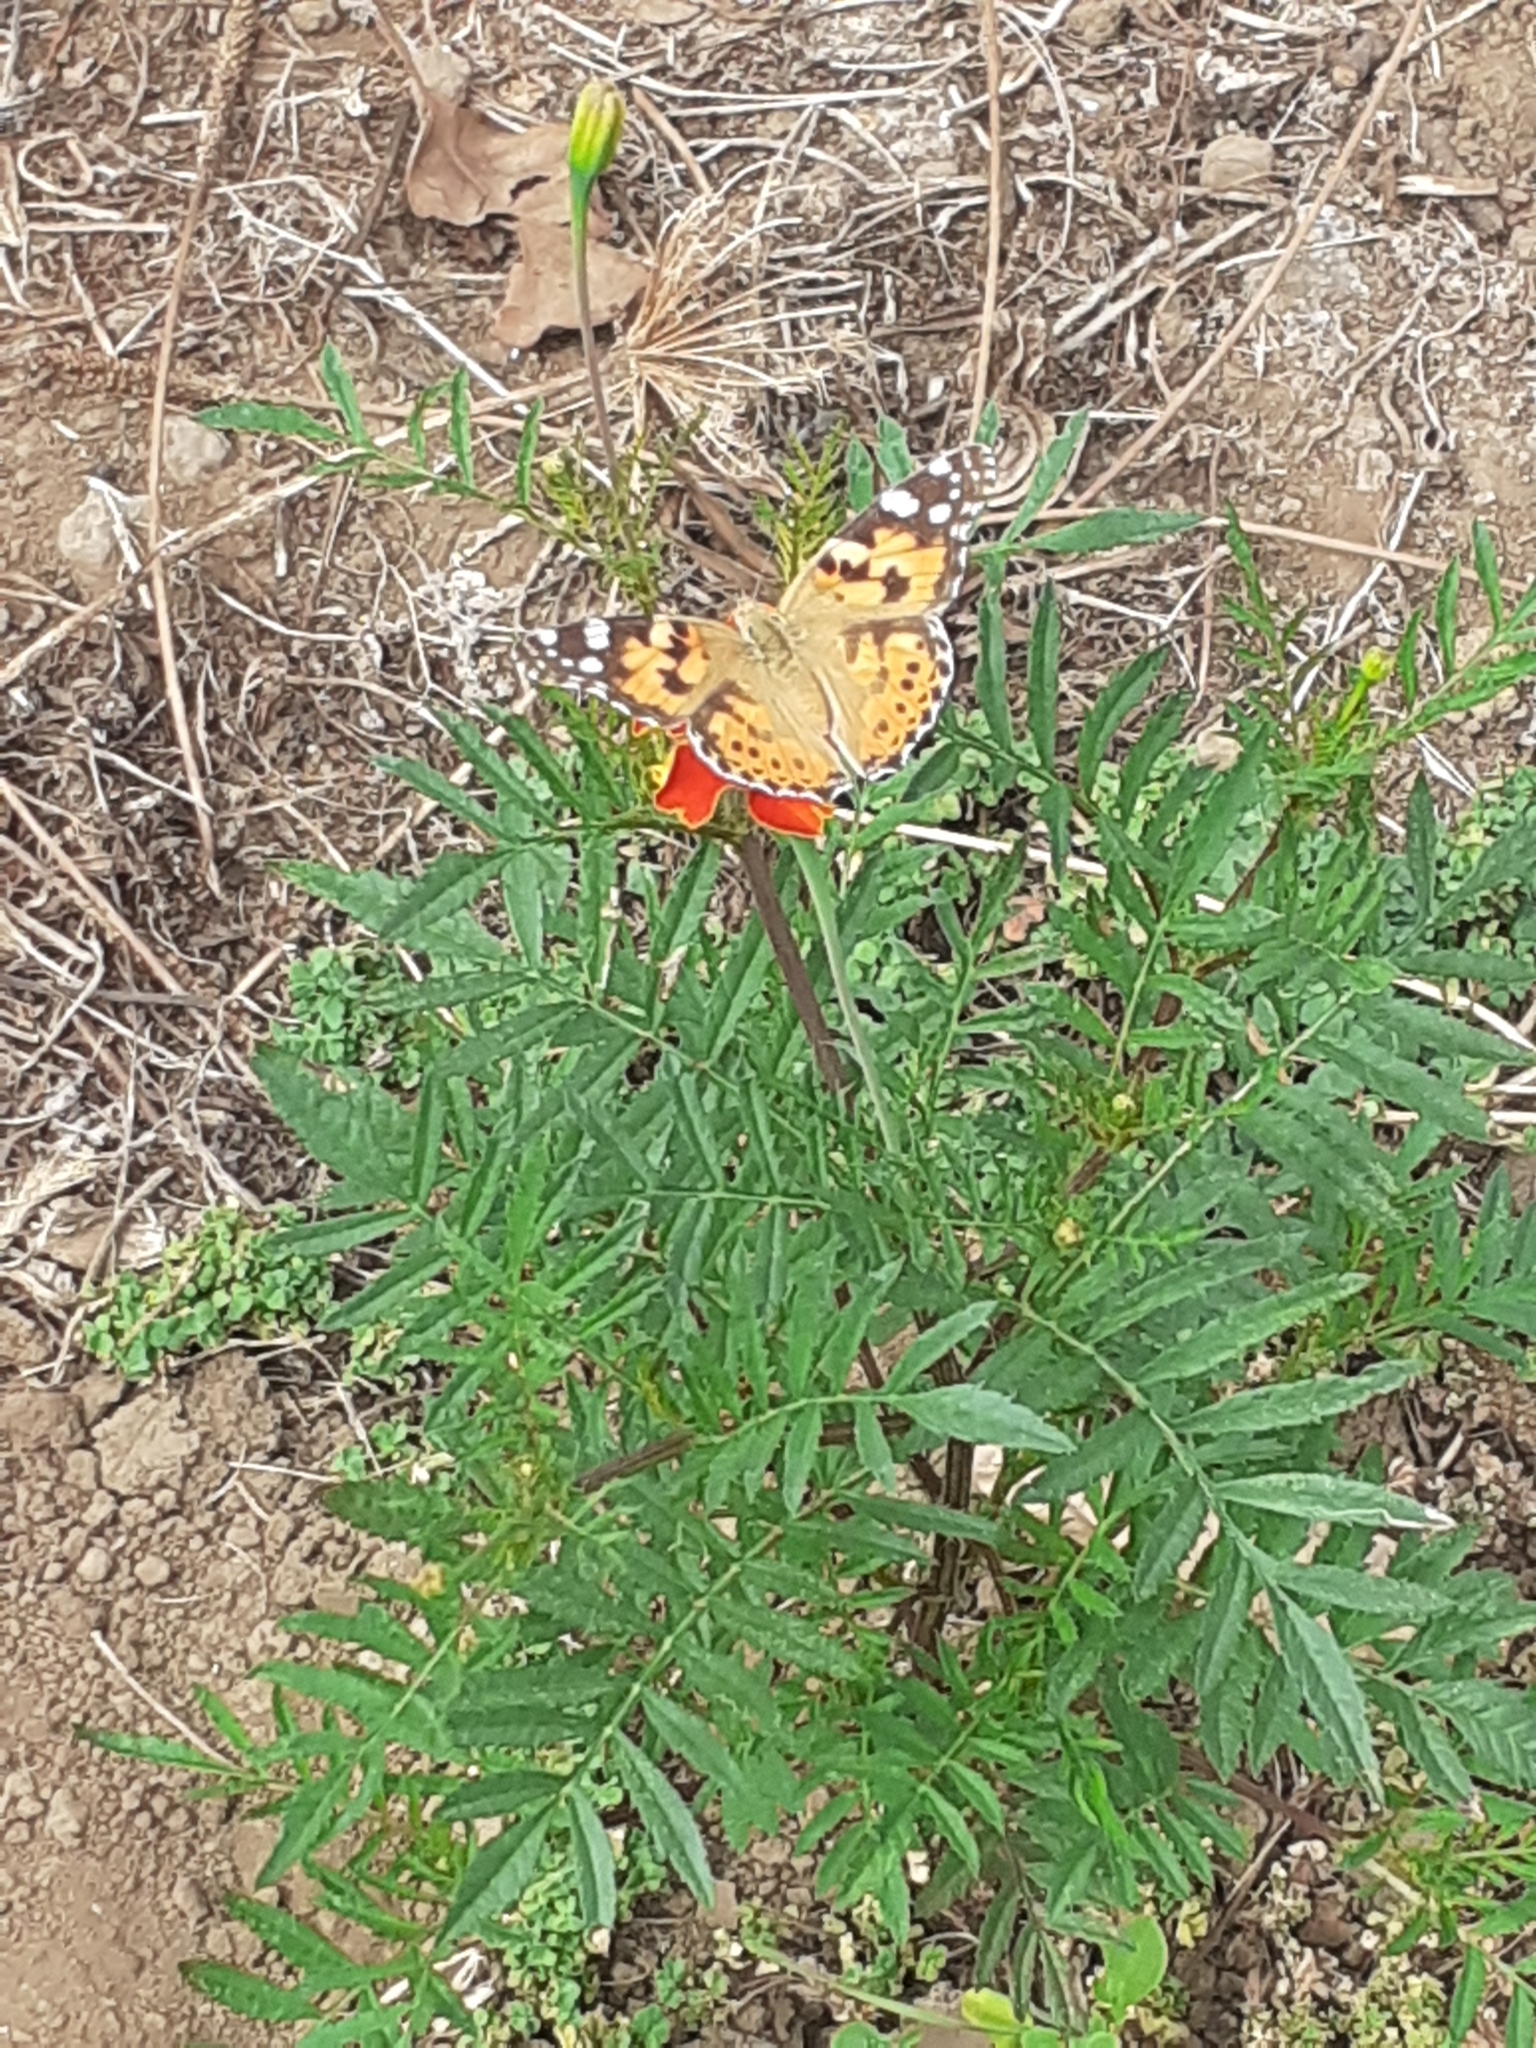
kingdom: Animalia
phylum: Arthropoda
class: Insecta
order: Lepidoptera
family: Nymphalidae
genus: Vanessa
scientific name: Vanessa cardui
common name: Painted lady
